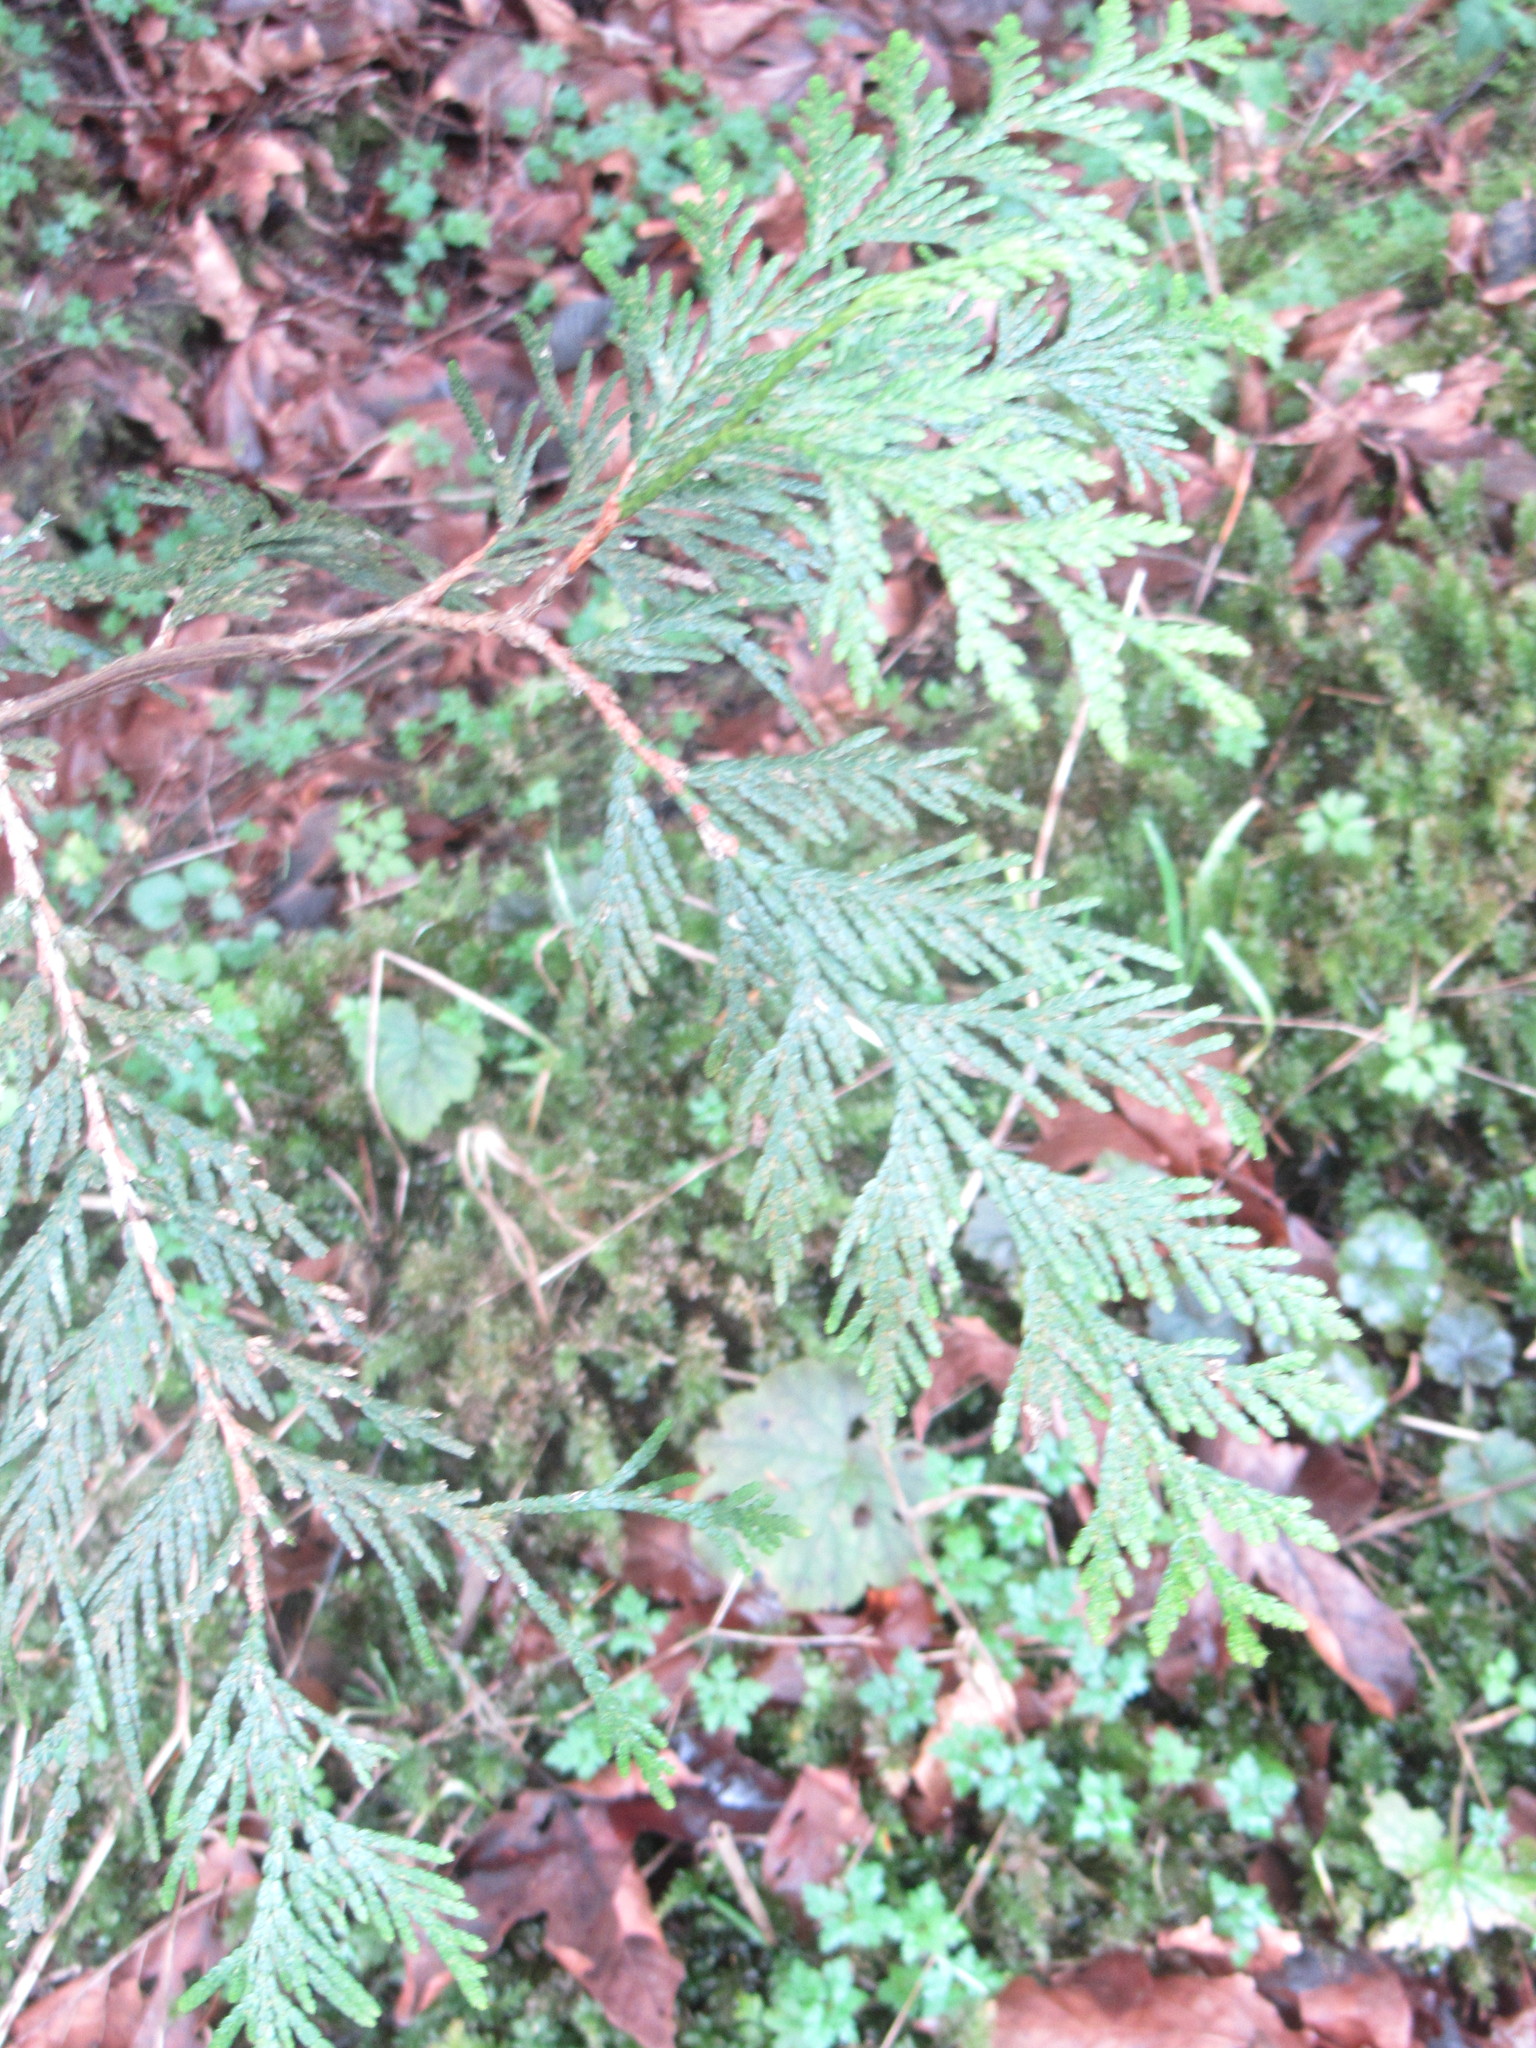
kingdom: Plantae
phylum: Tracheophyta
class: Pinopsida
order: Pinales
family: Cupressaceae
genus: Thuja
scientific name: Thuja plicata
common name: Western red-cedar
